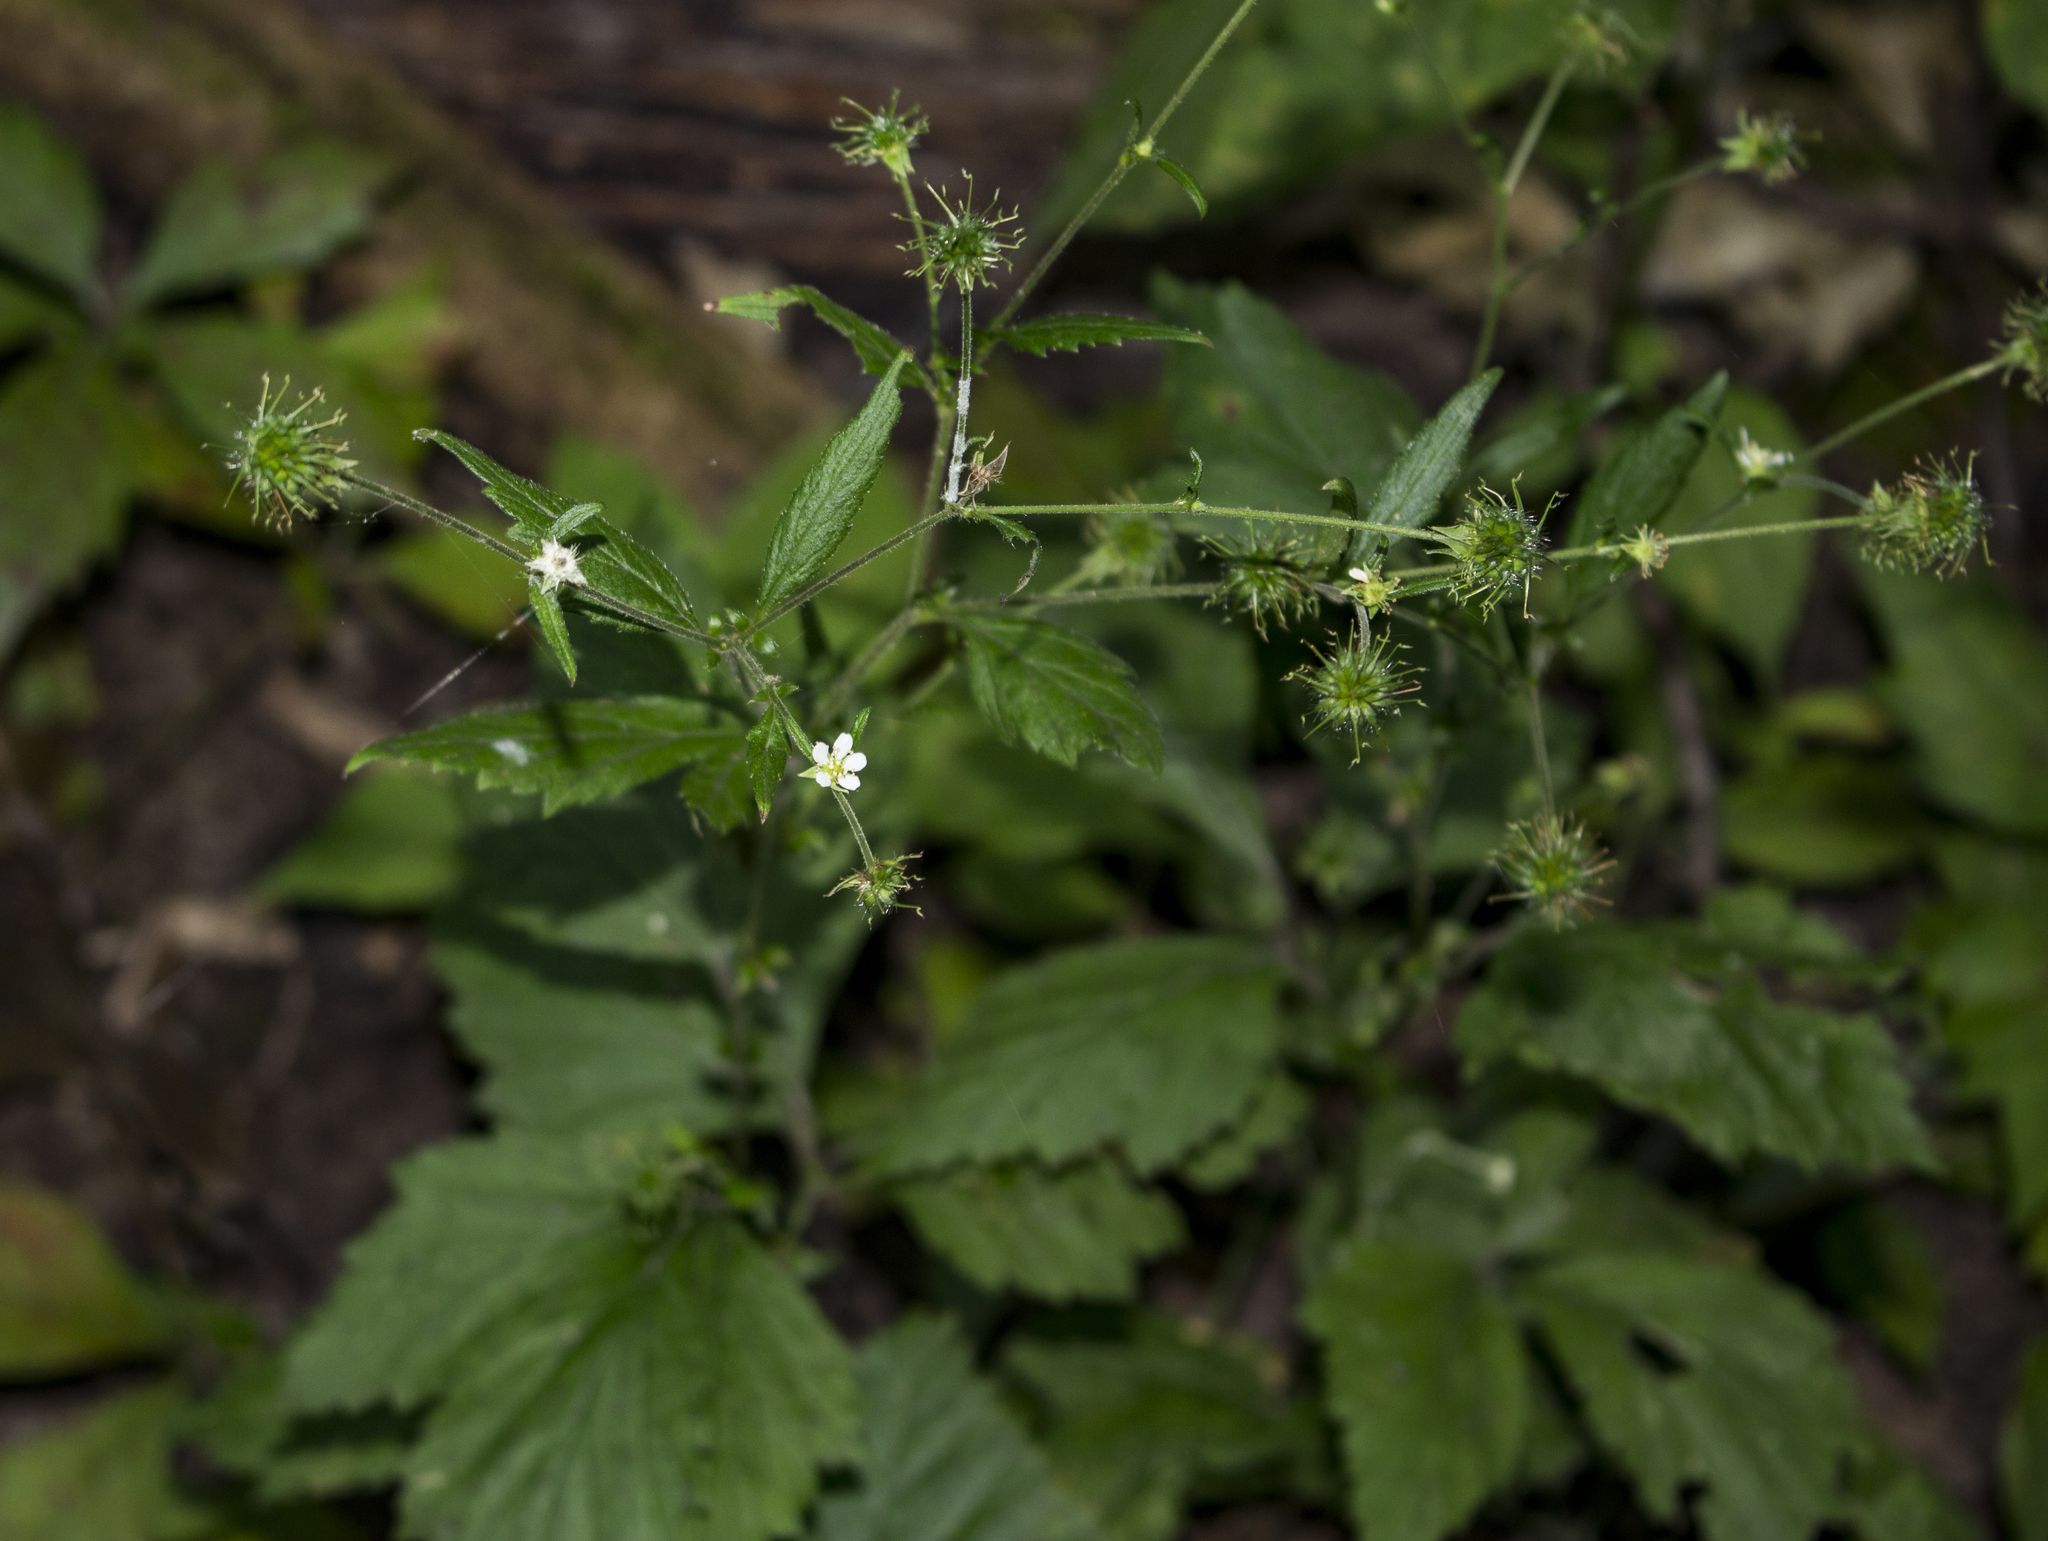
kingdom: Plantae
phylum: Tracheophyta
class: Magnoliopsida
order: Rosales
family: Rosaceae
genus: Geum
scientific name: Geum canadense
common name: White avens
